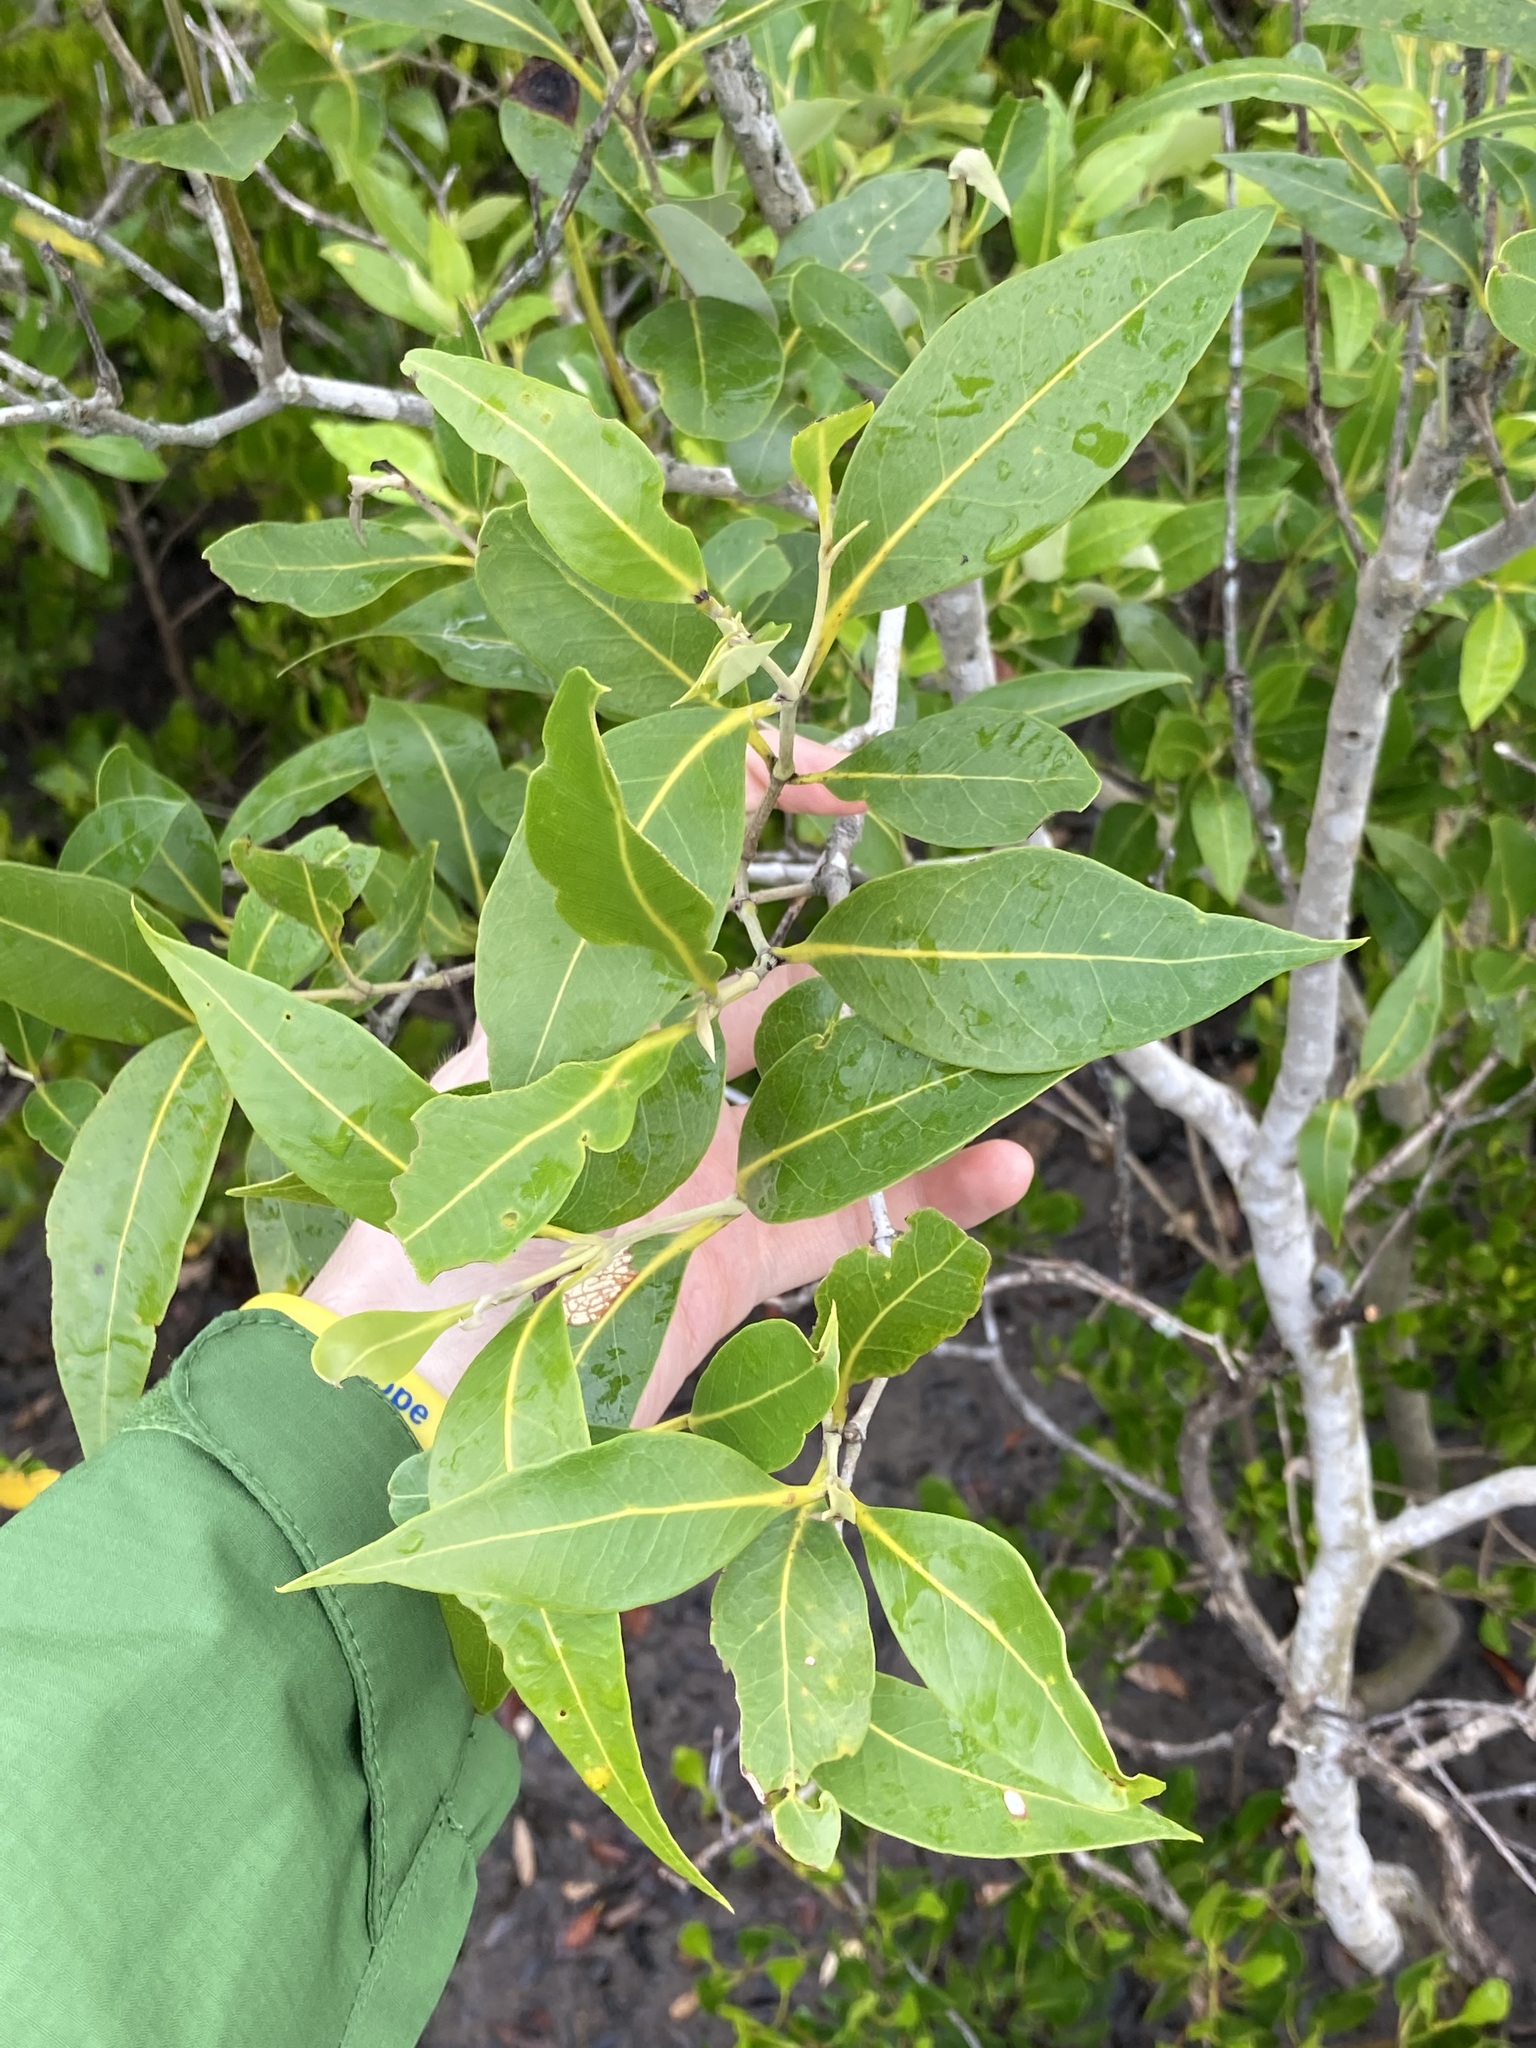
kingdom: Plantae
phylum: Tracheophyta
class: Magnoliopsida
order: Lamiales
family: Acanthaceae
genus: Avicennia
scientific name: Avicennia marina
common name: Gray mangrove
